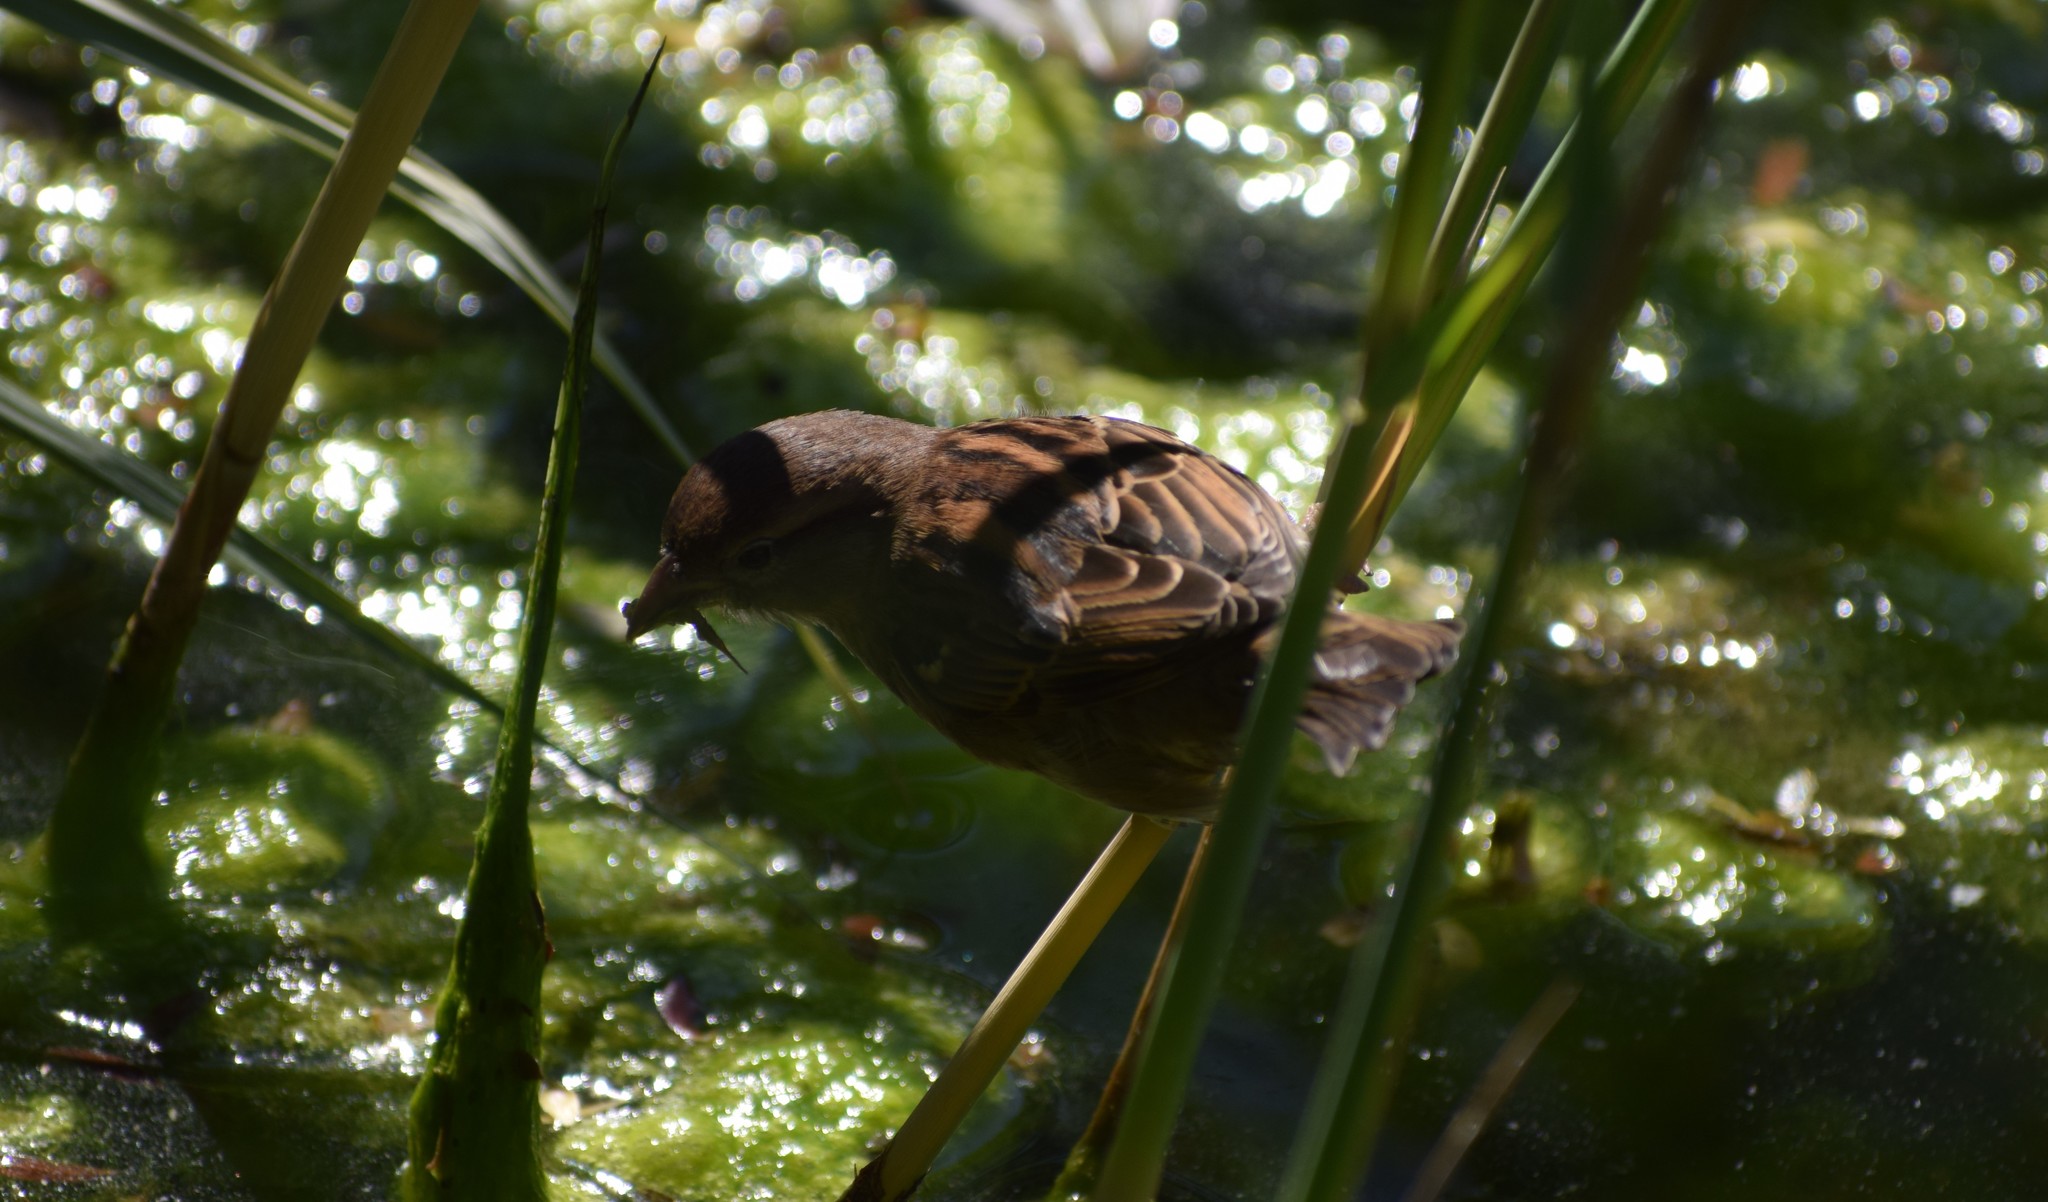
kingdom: Animalia
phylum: Chordata
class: Aves
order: Passeriformes
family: Passeridae
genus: Passer
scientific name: Passer domesticus
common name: House sparrow
